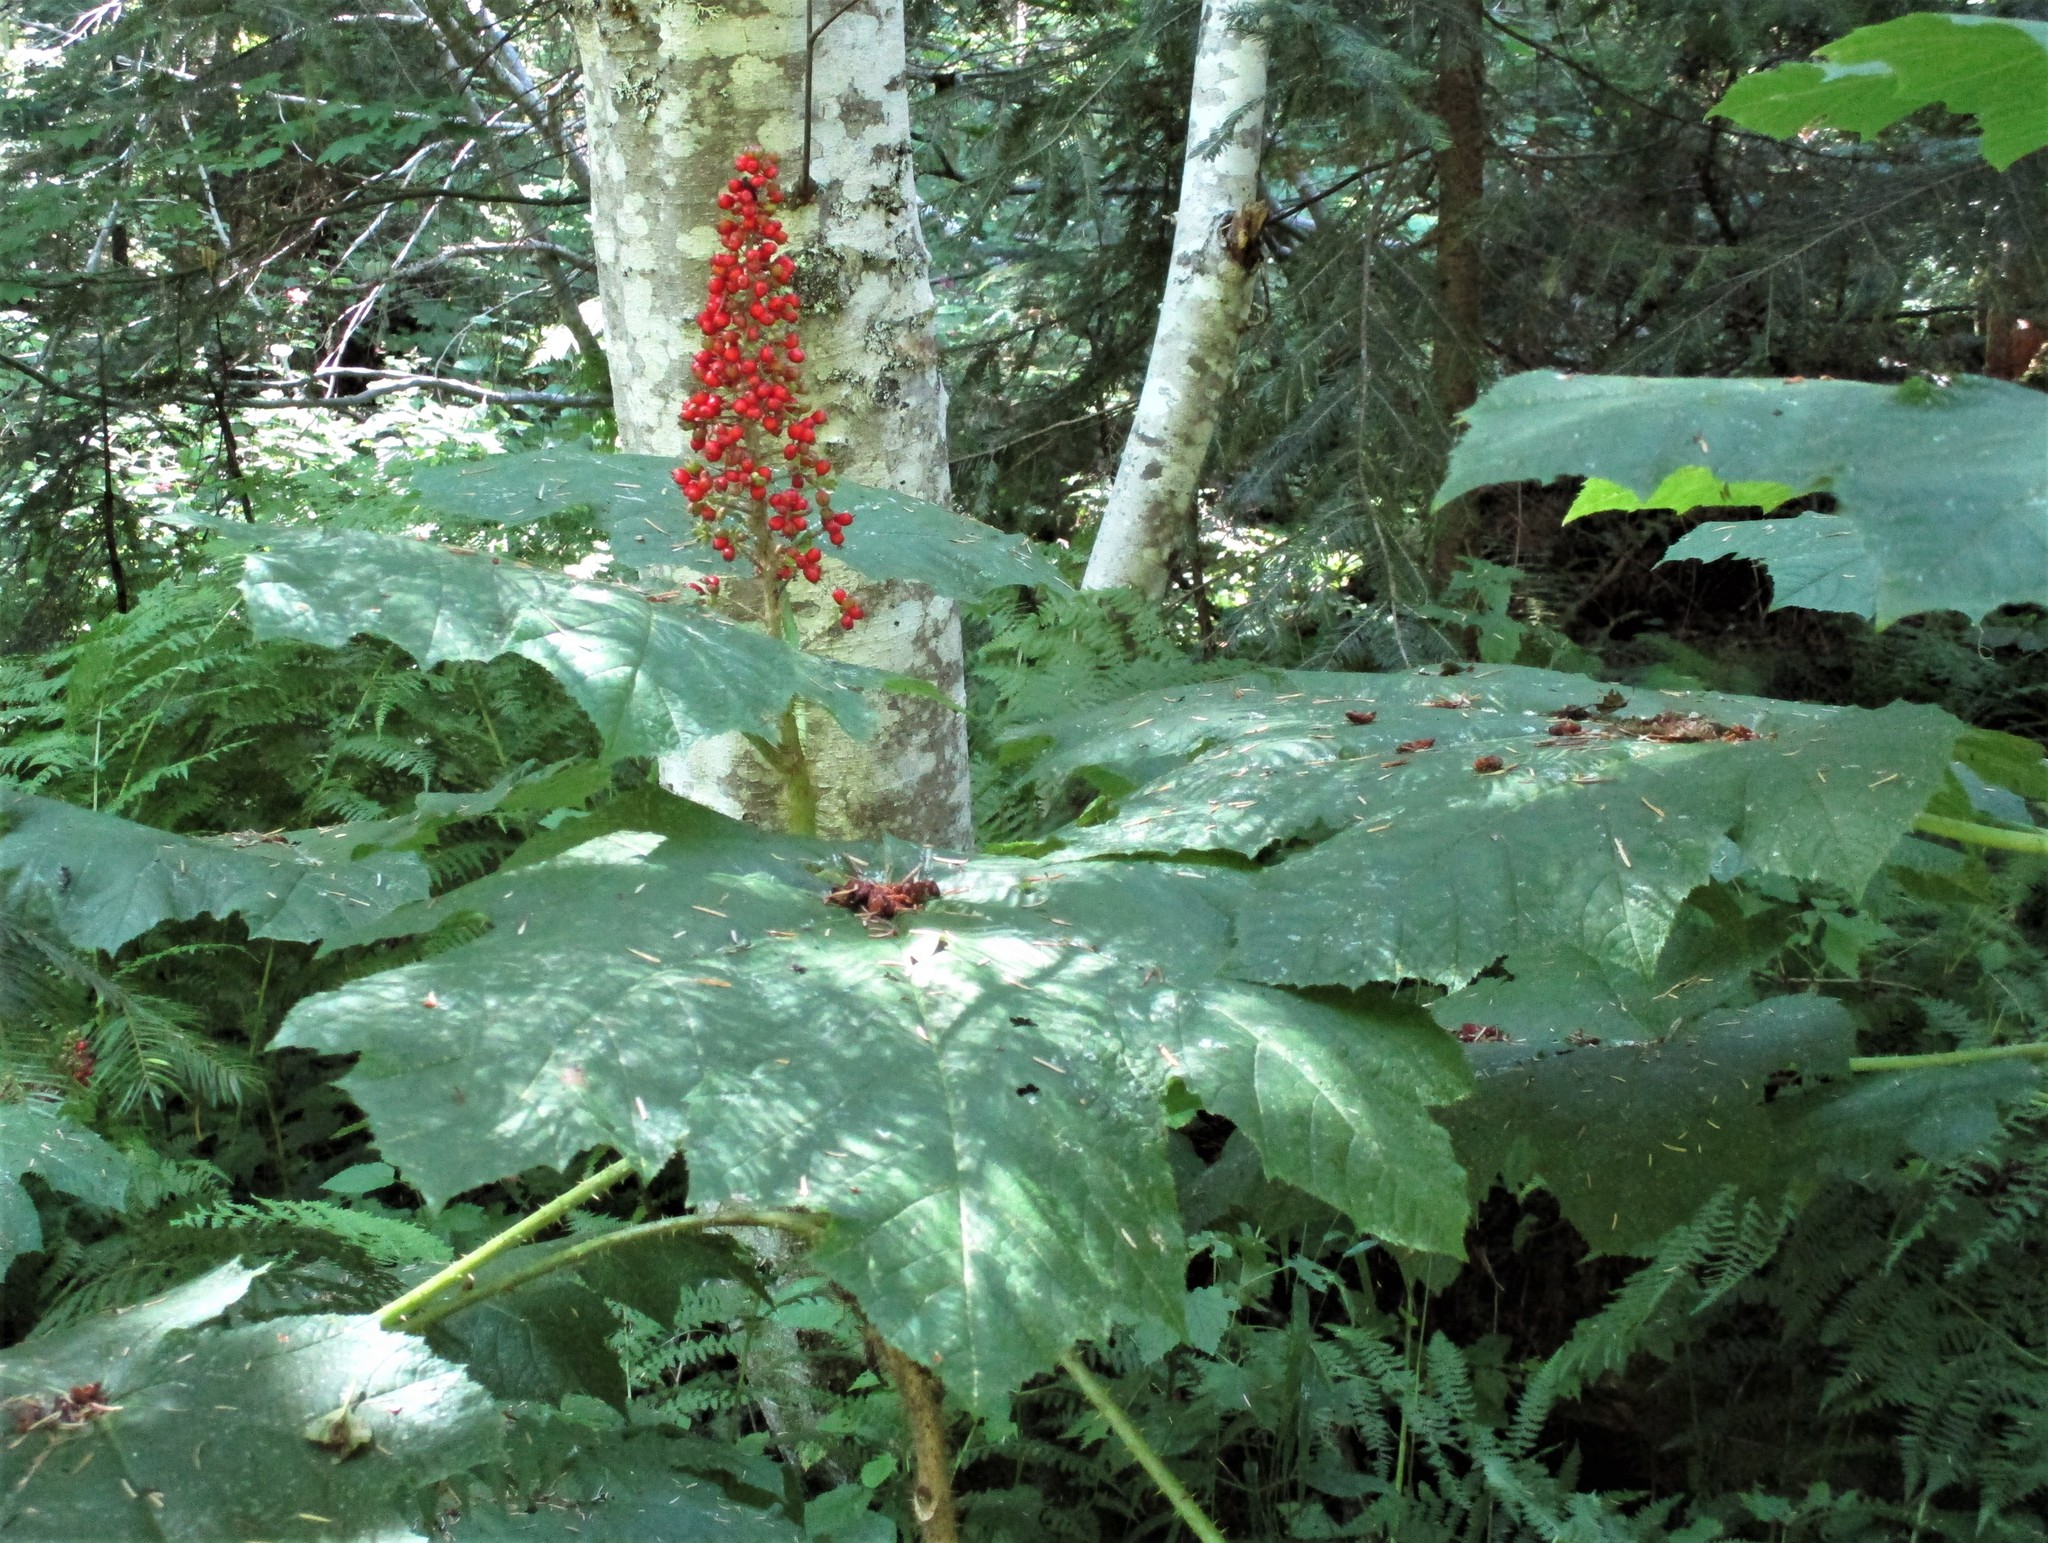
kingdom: Plantae
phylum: Tracheophyta
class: Magnoliopsida
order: Apiales
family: Araliaceae
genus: Oplopanax
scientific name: Oplopanax horridus
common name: Devil's walking-stick
